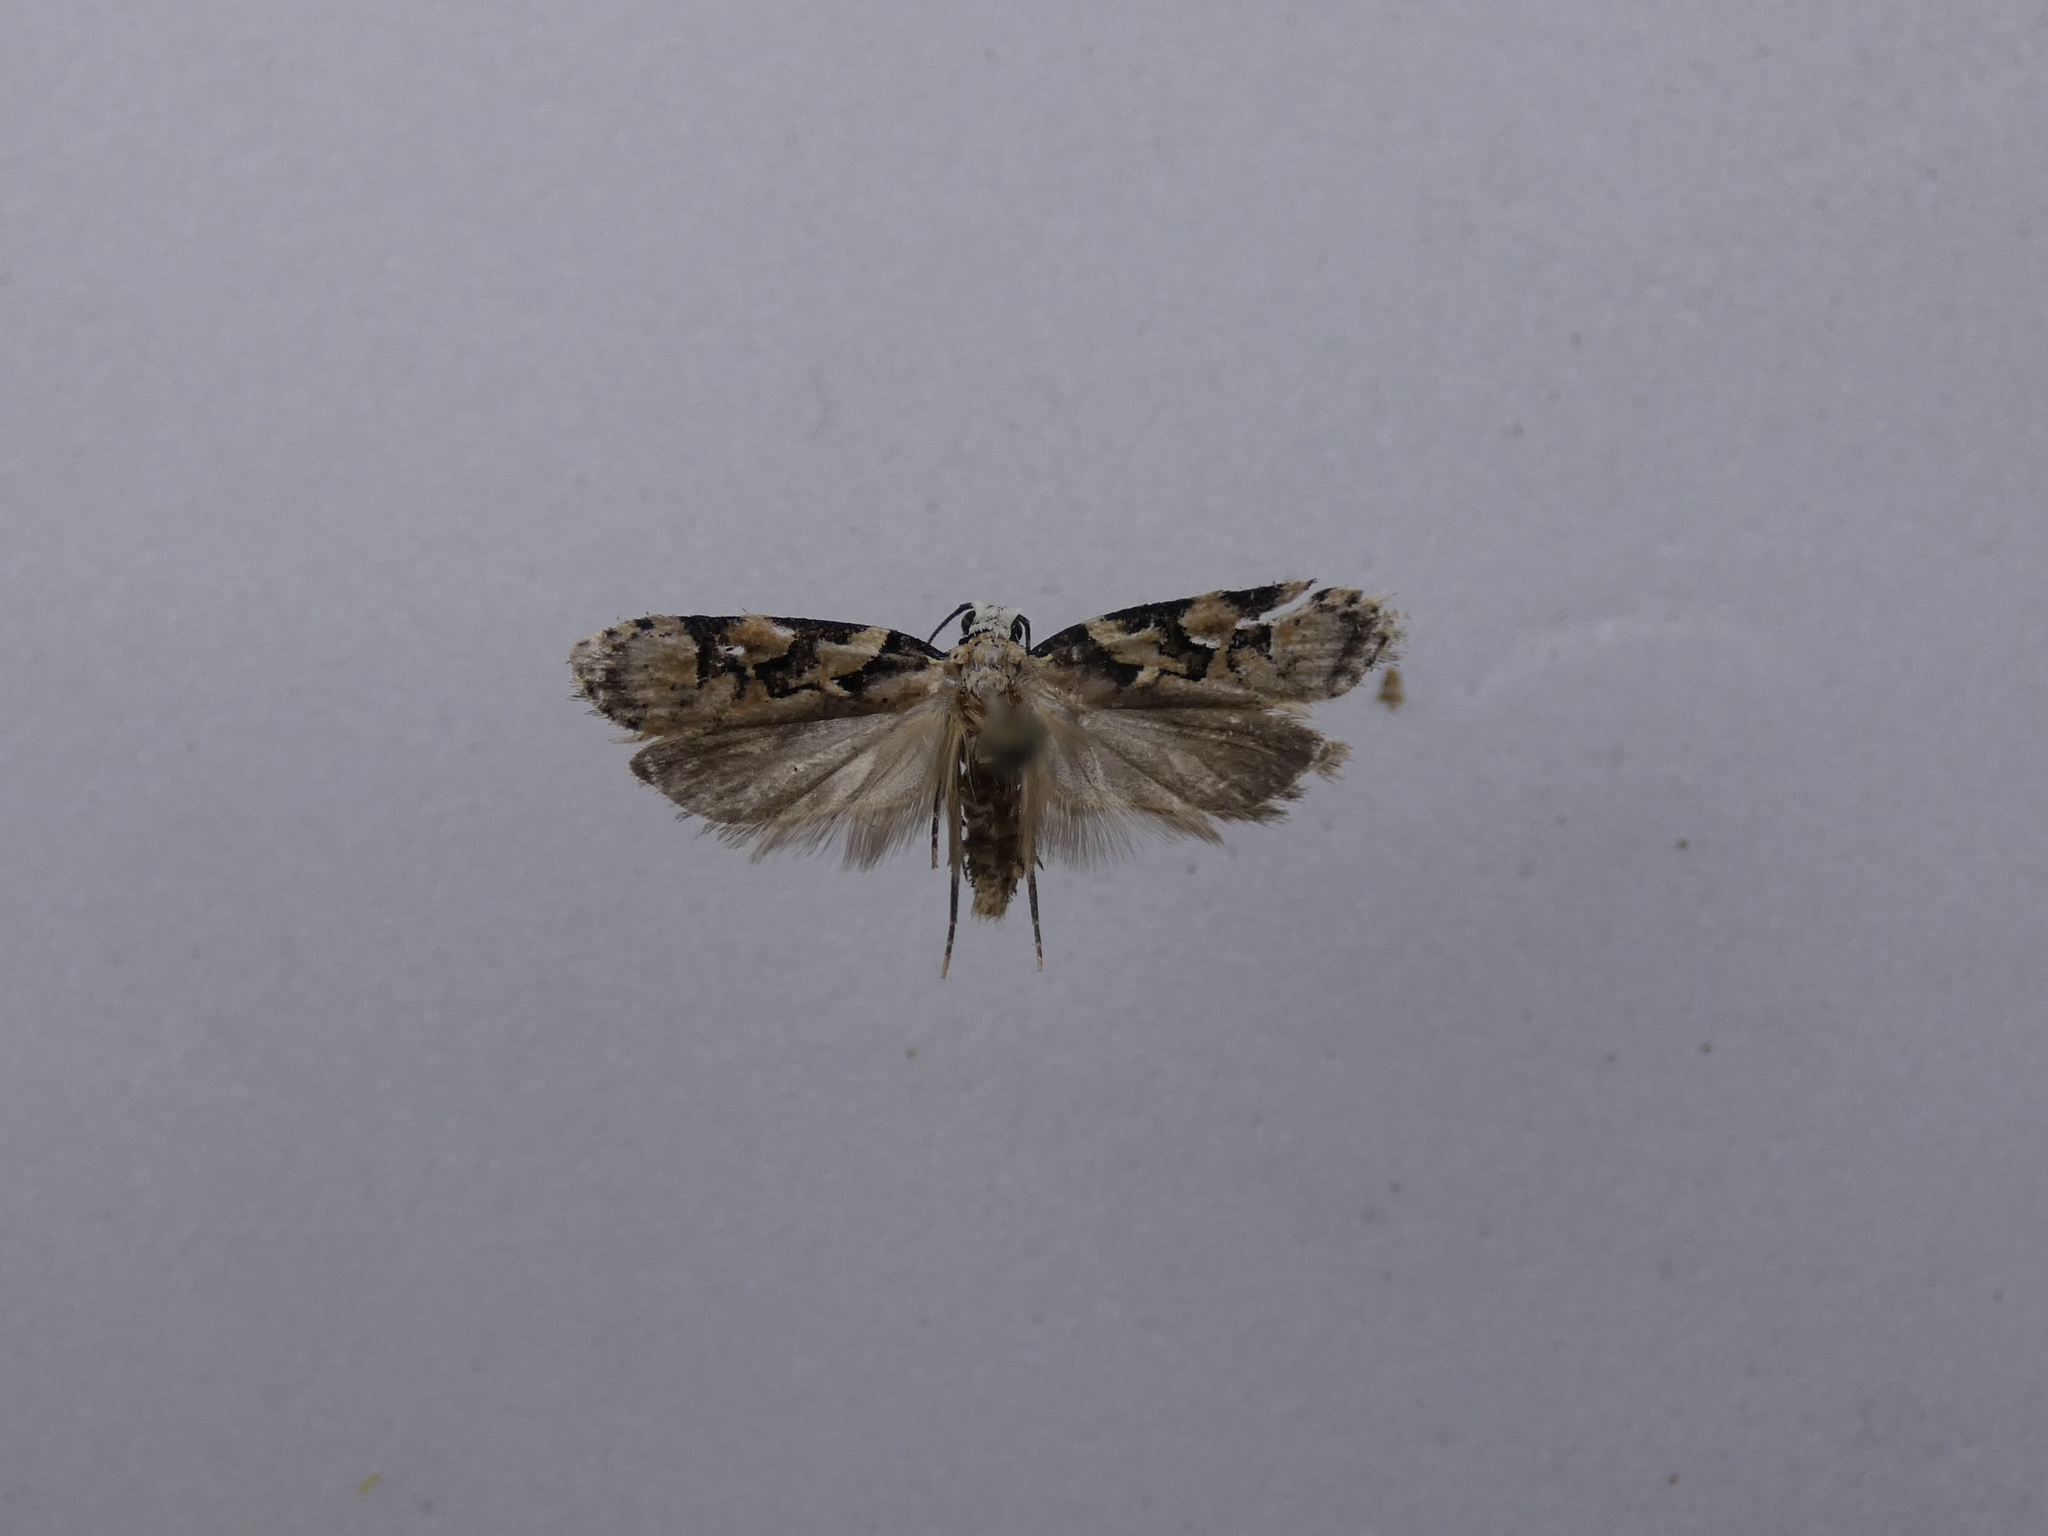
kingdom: Animalia
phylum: Arthropoda
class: Insecta
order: Lepidoptera
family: Oecophoridae
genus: Izatha
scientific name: Izatha epiphanes
